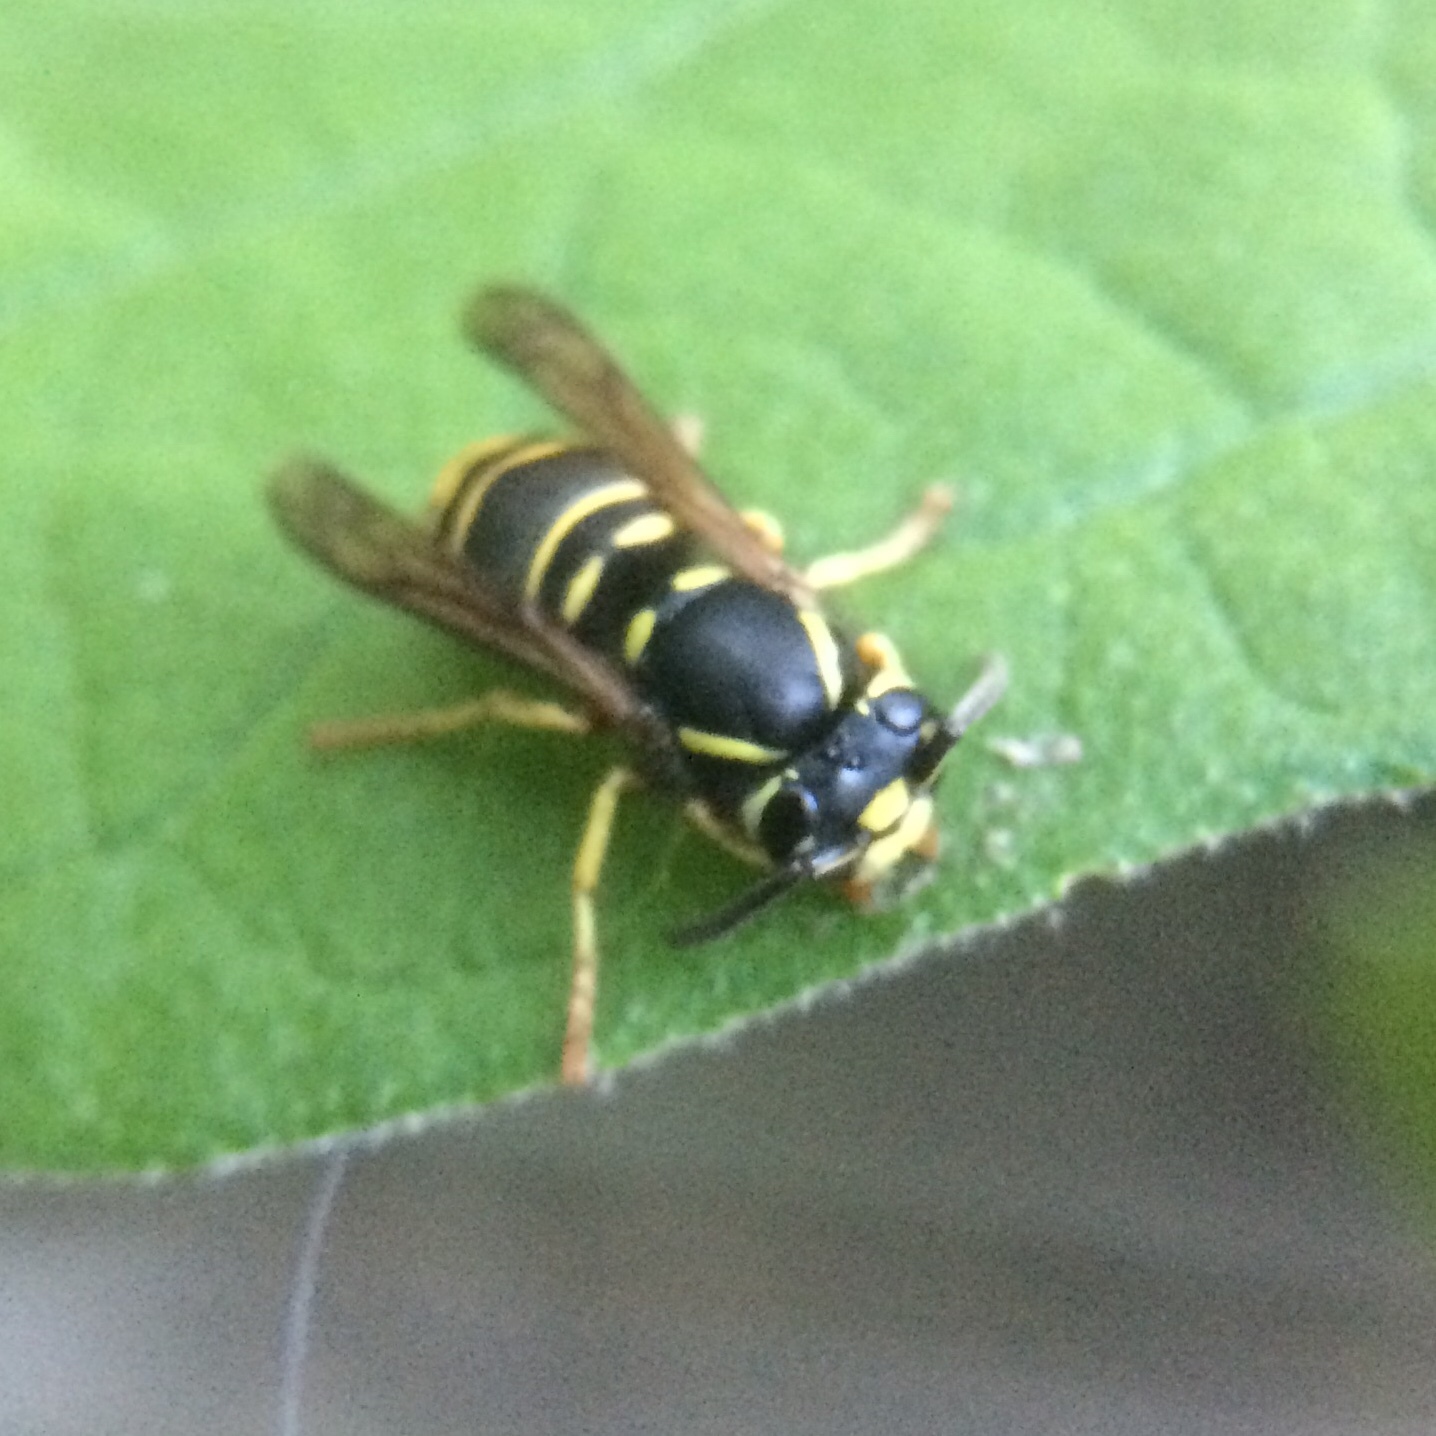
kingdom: Animalia
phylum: Arthropoda
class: Insecta
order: Hymenoptera
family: Vespidae
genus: Vespula
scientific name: Vespula vidua
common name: Widow yellowjacket
